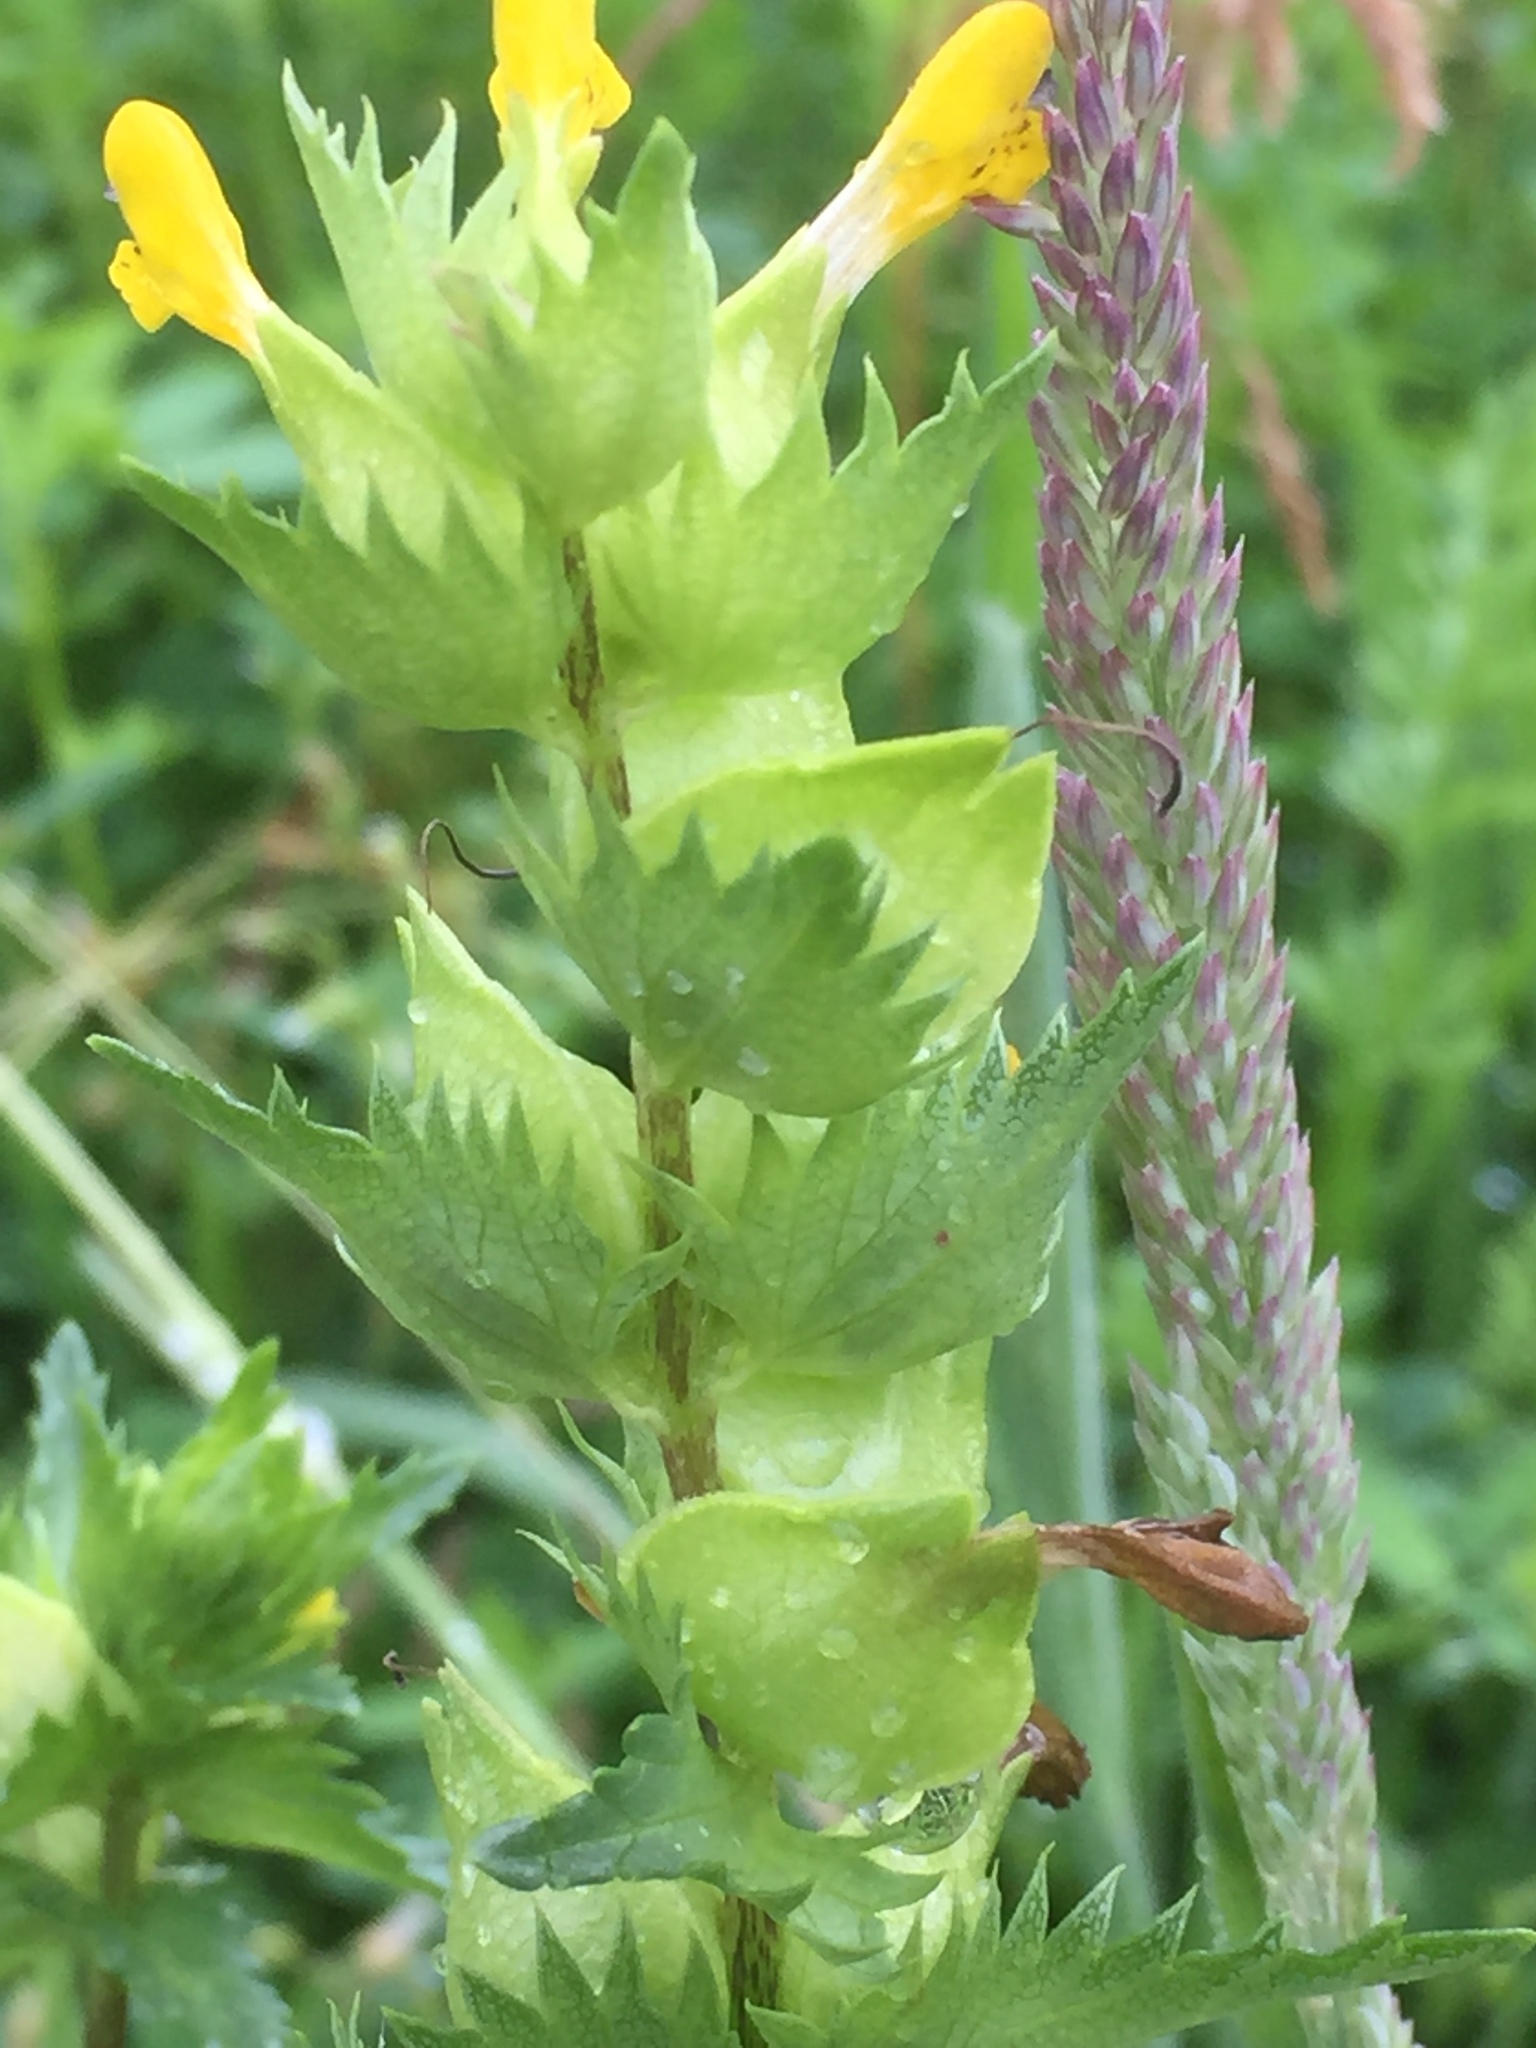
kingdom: Plantae
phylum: Tracheophyta
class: Magnoliopsida
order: Lamiales
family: Orobanchaceae
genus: Rhinanthus
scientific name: Rhinanthus minor
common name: Yellow-rattle
